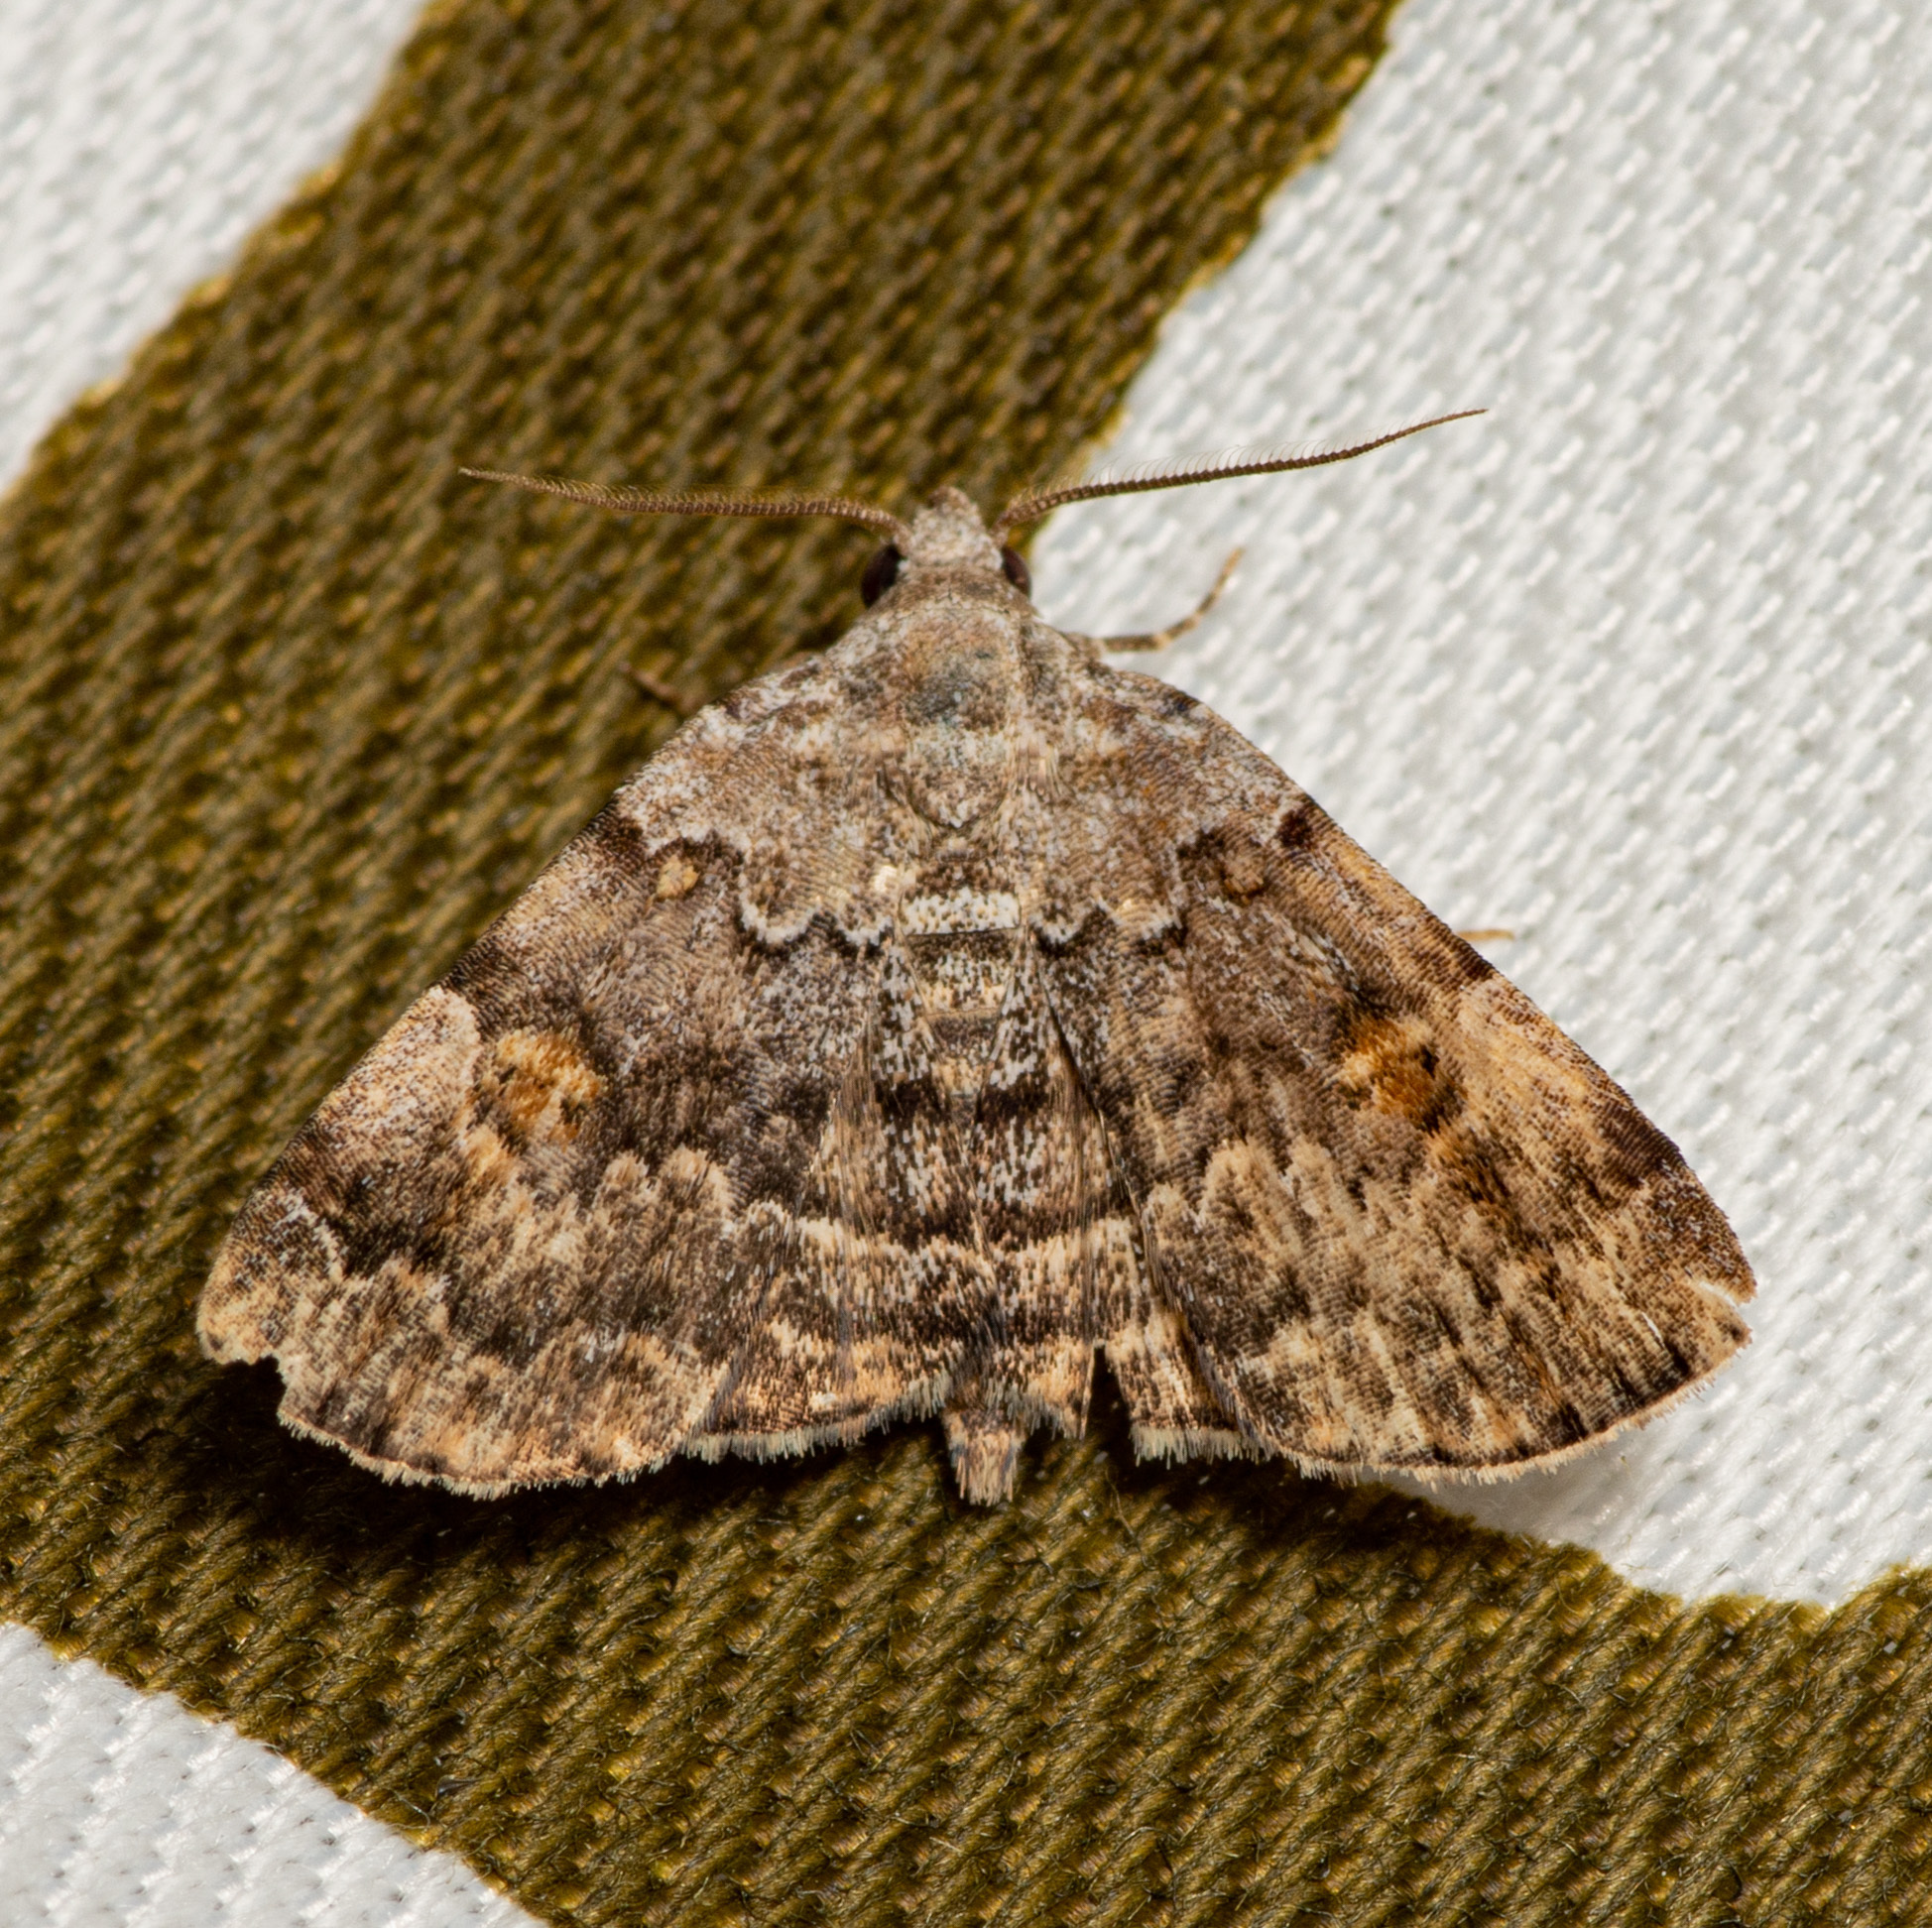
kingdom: Animalia
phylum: Arthropoda
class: Insecta
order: Lepidoptera
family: Erebidae
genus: Idia
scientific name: Idia americalis
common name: American idia moth
